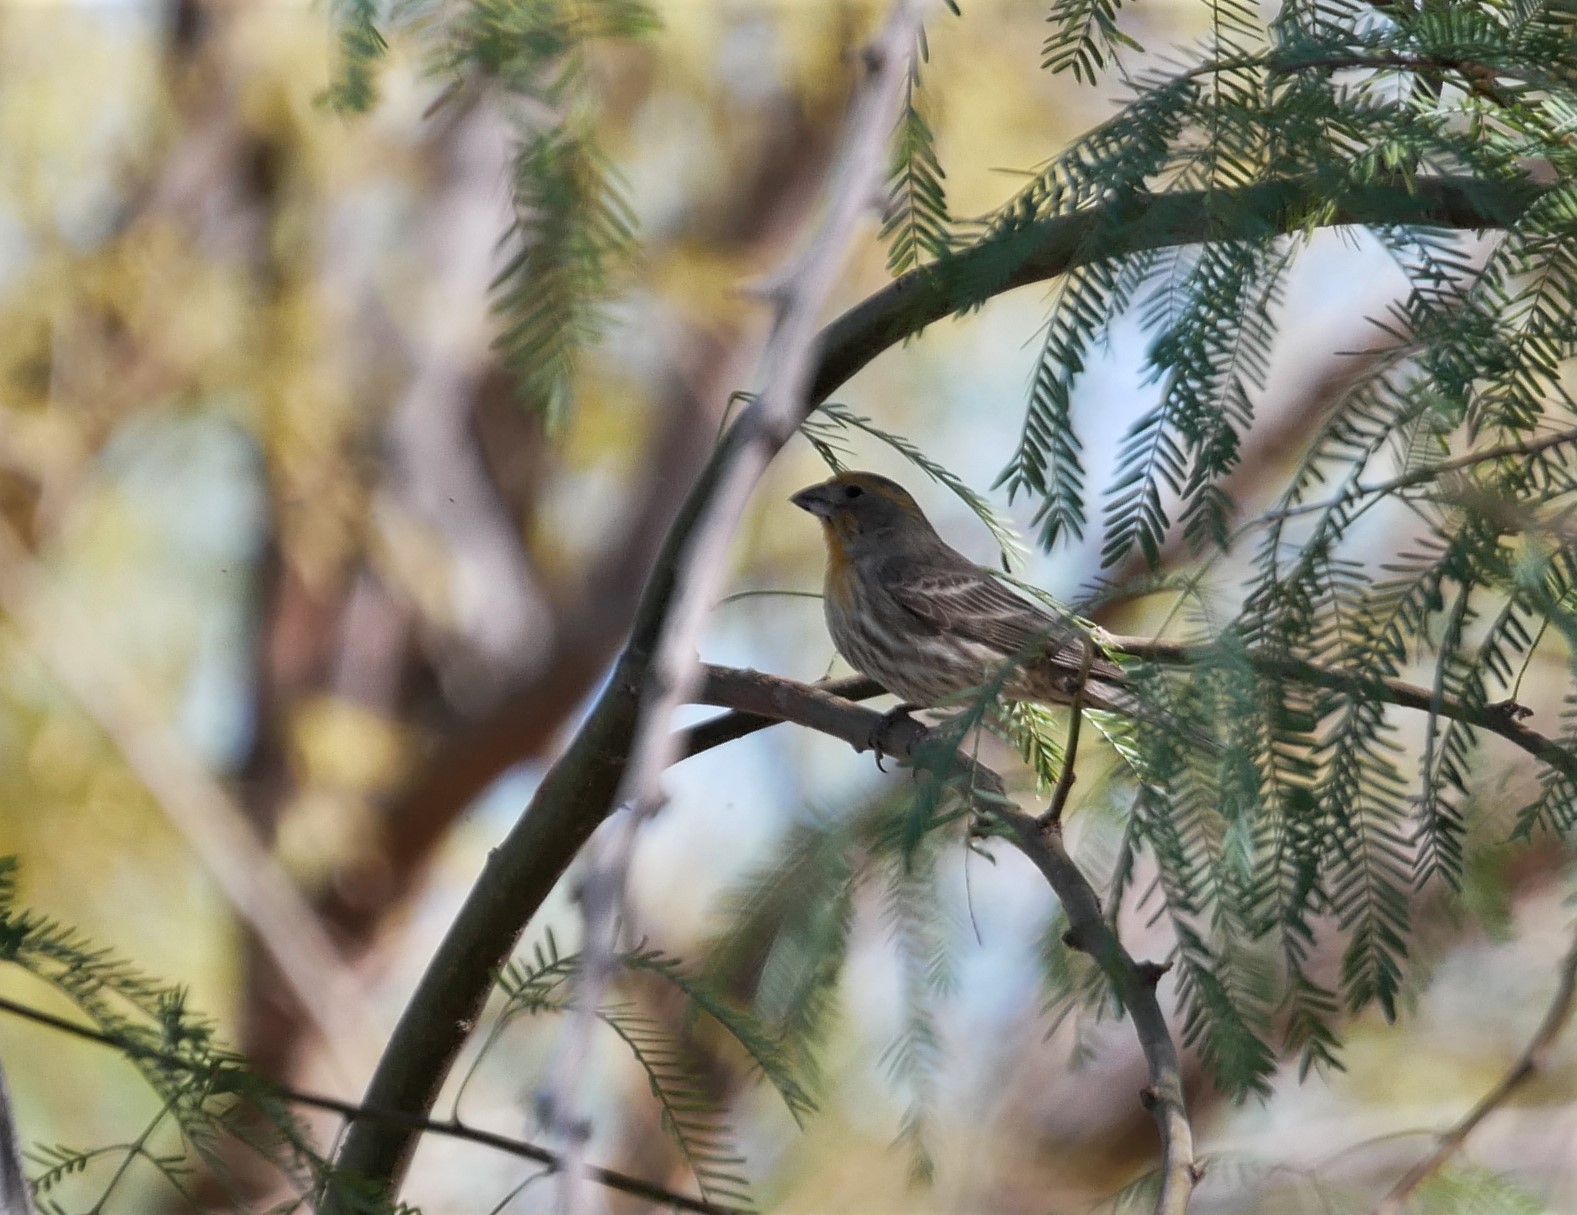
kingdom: Animalia
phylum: Chordata
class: Aves
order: Passeriformes
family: Fringillidae
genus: Haemorhous
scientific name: Haemorhous mexicanus
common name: House finch
